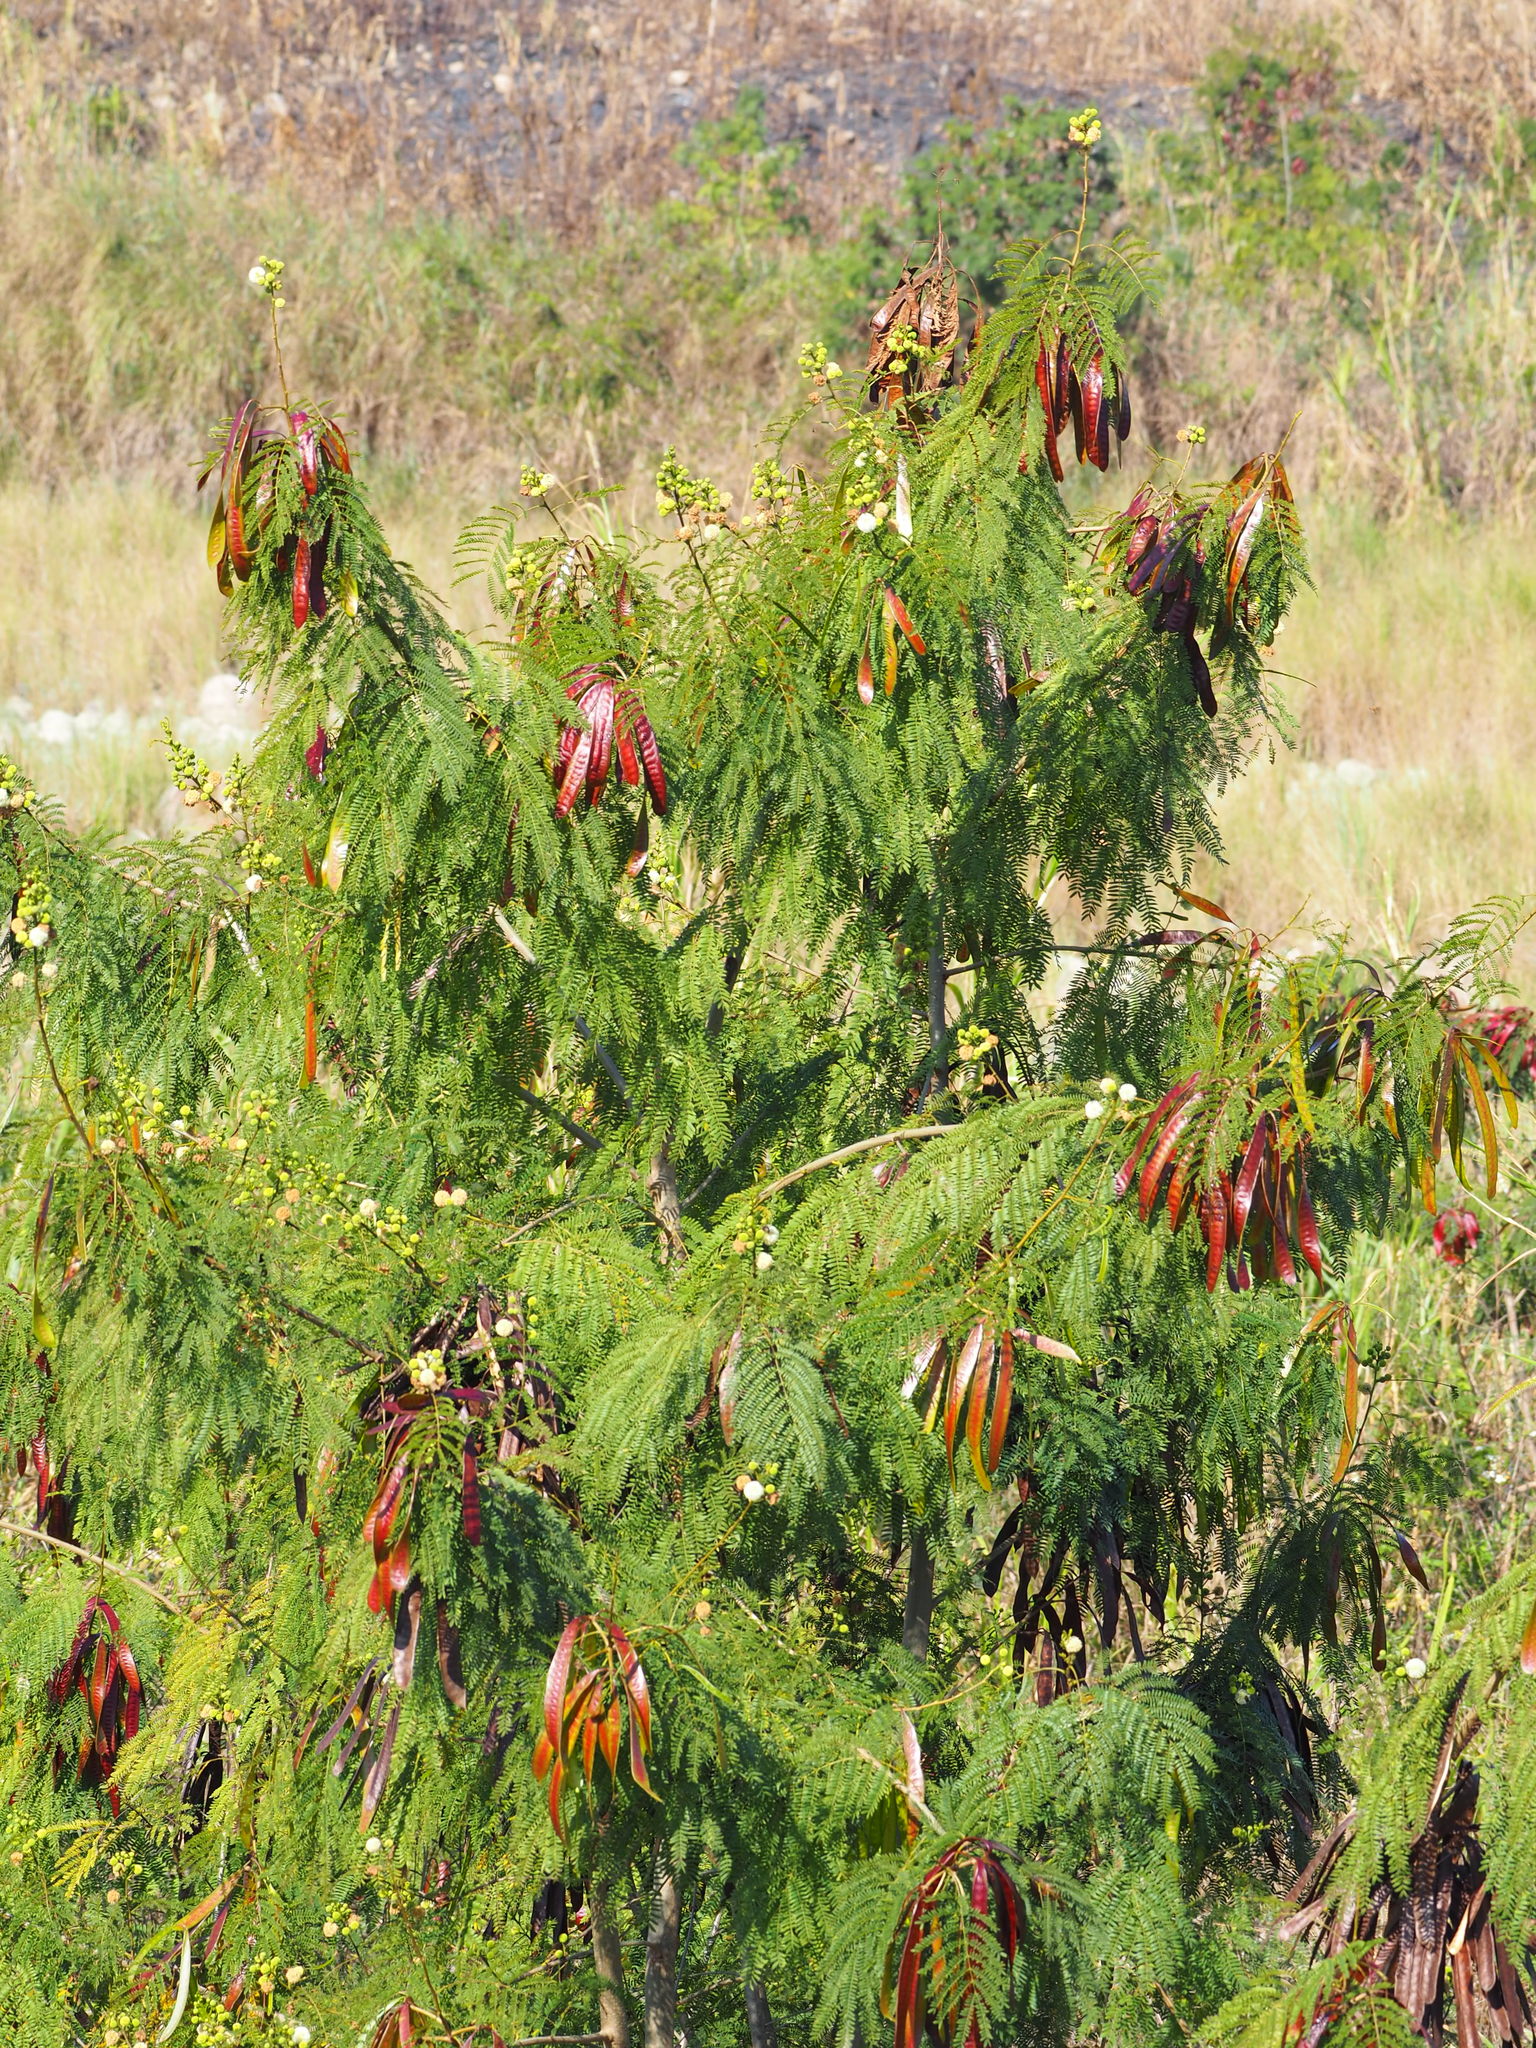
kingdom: Plantae
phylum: Tracheophyta
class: Magnoliopsida
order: Fabales
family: Fabaceae
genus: Leucaena
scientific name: Leucaena leucocephala
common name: White leadtree
